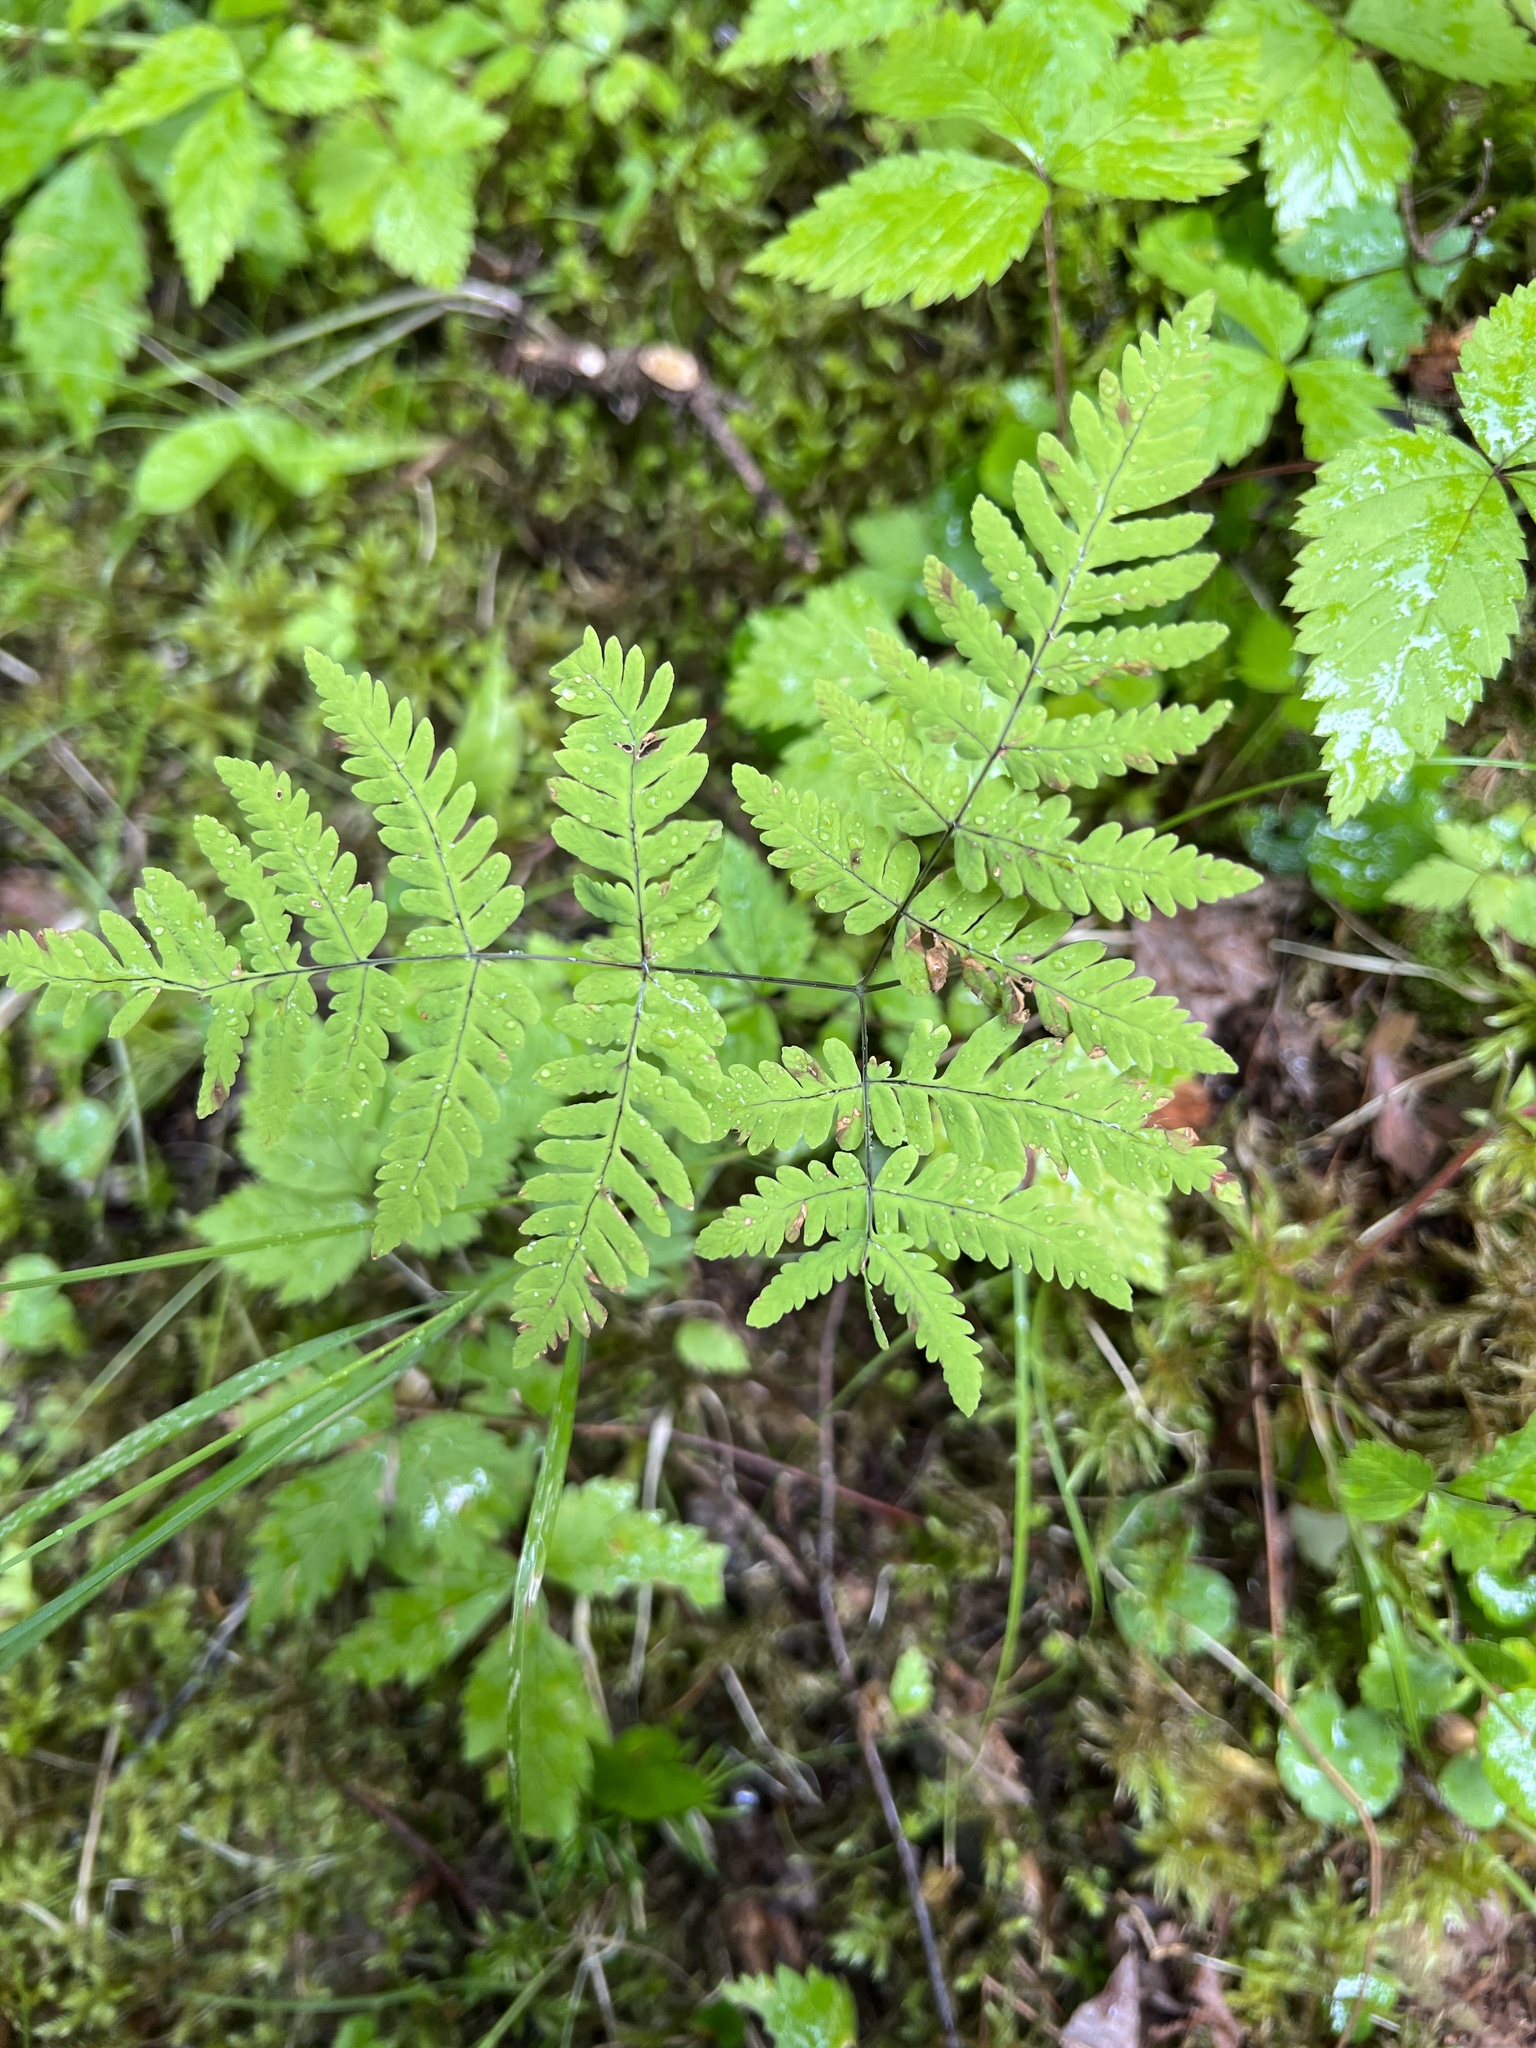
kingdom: Plantae
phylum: Tracheophyta
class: Polypodiopsida
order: Polypodiales
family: Cystopteridaceae
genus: Gymnocarpium
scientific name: Gymnocarpium dryopteris
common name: Oak fern
